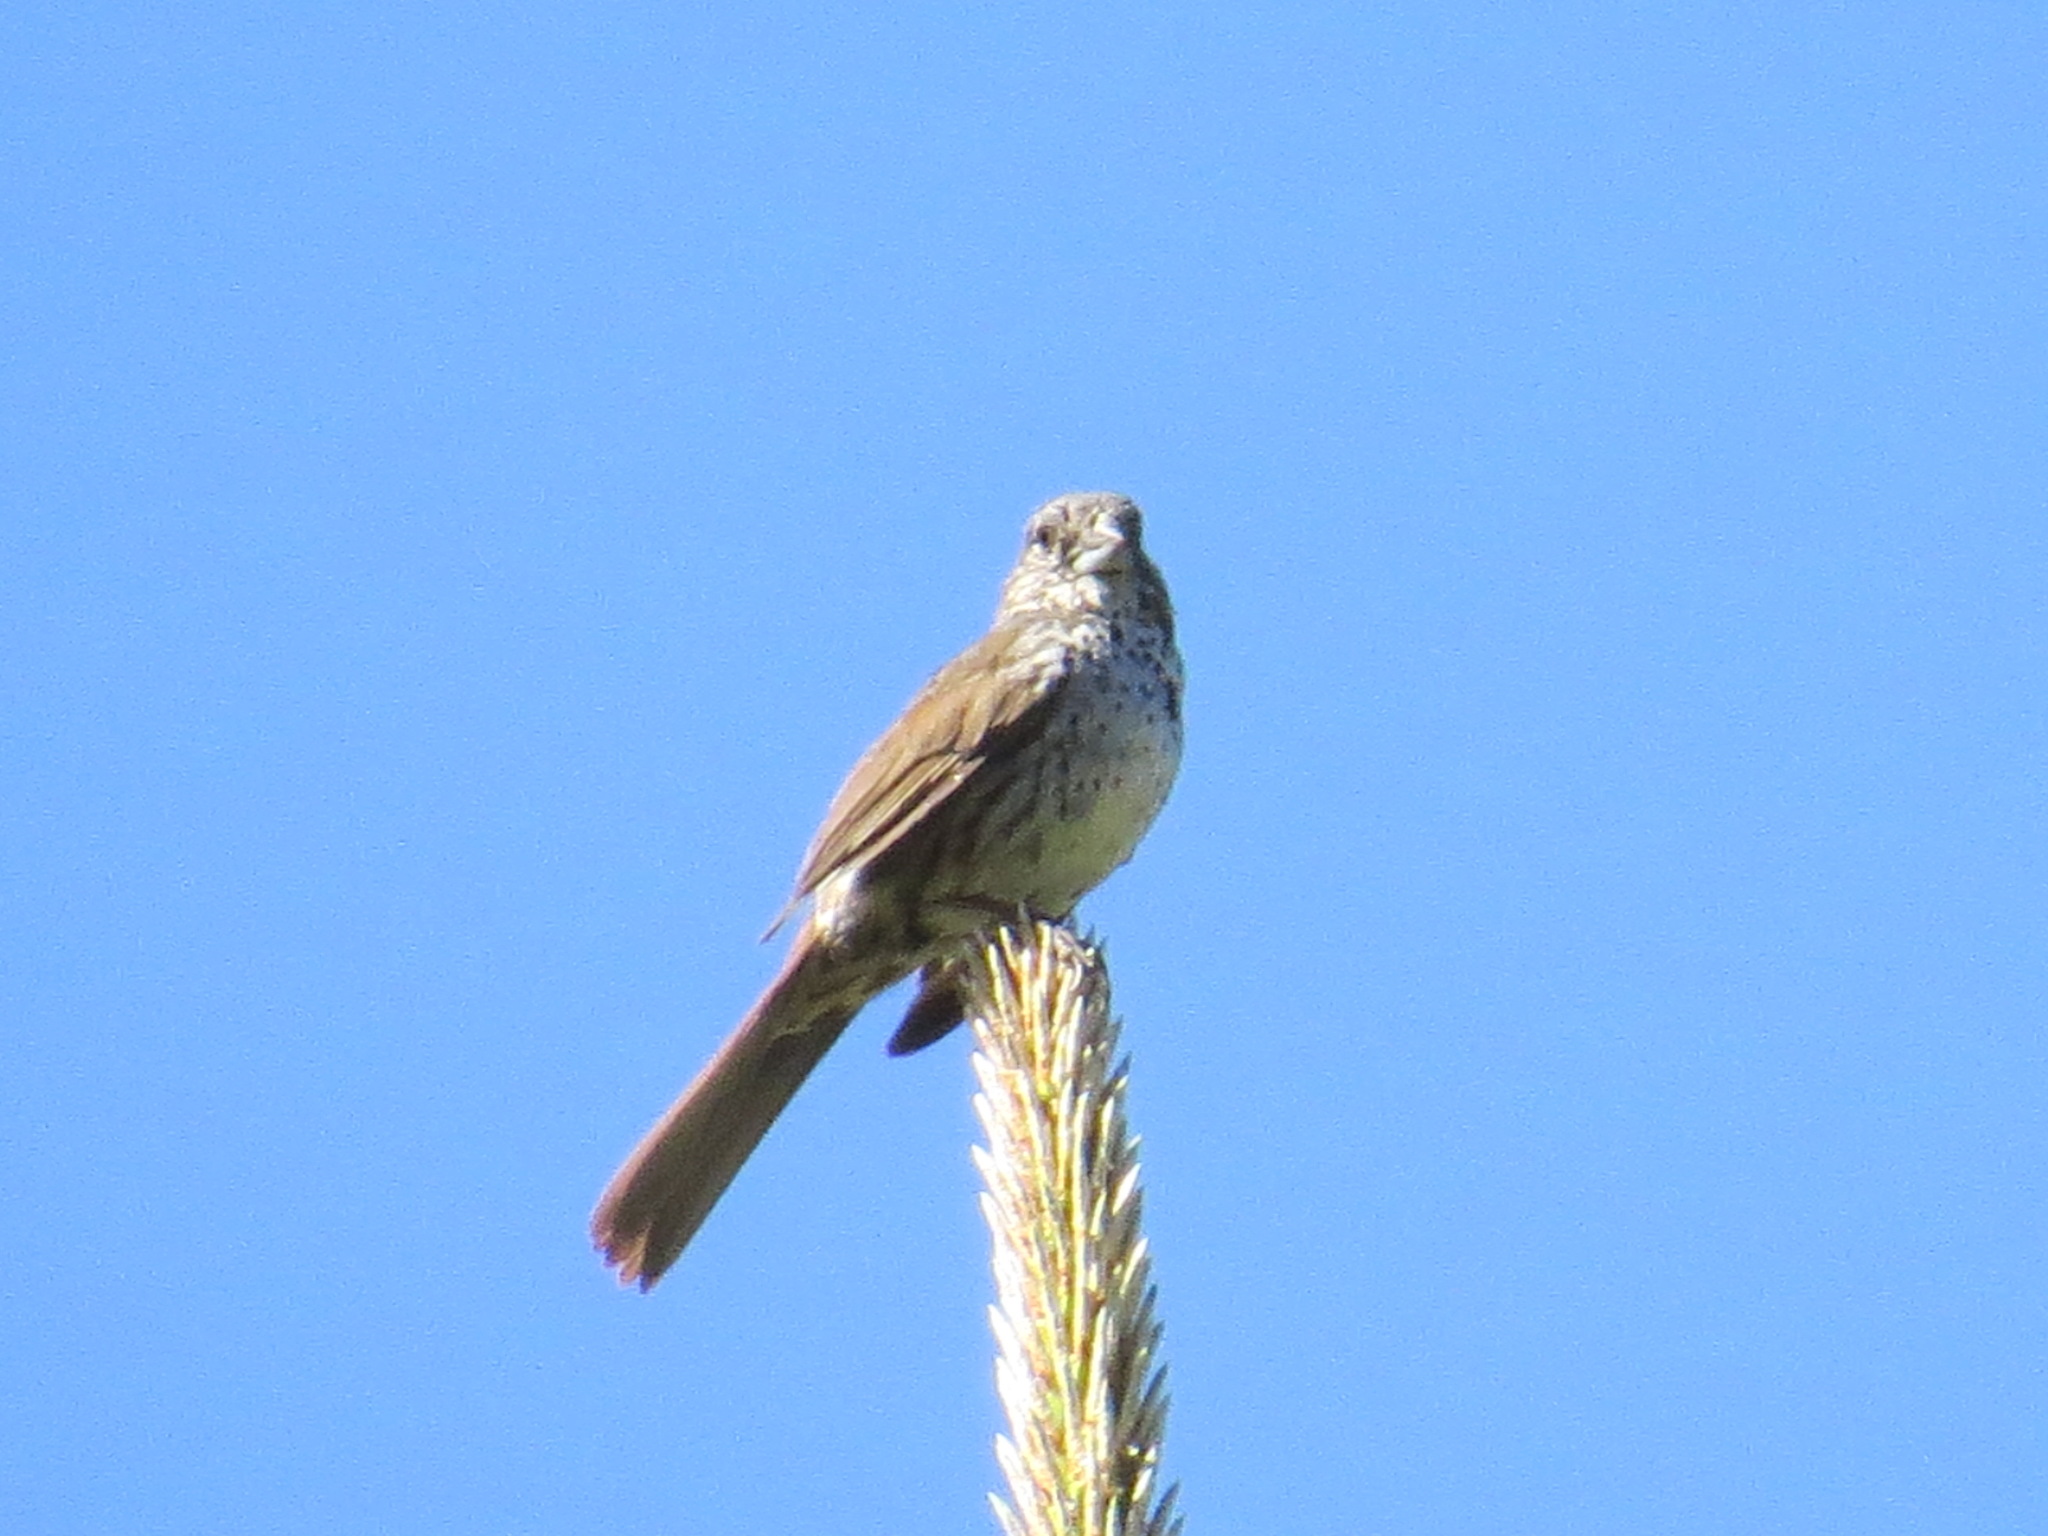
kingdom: Animalia
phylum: Chordata
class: Aves
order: Passeriformes
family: Passerellidae
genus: Passerella
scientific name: Passerella megarhyncha
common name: Thick-billed fox sparrow
